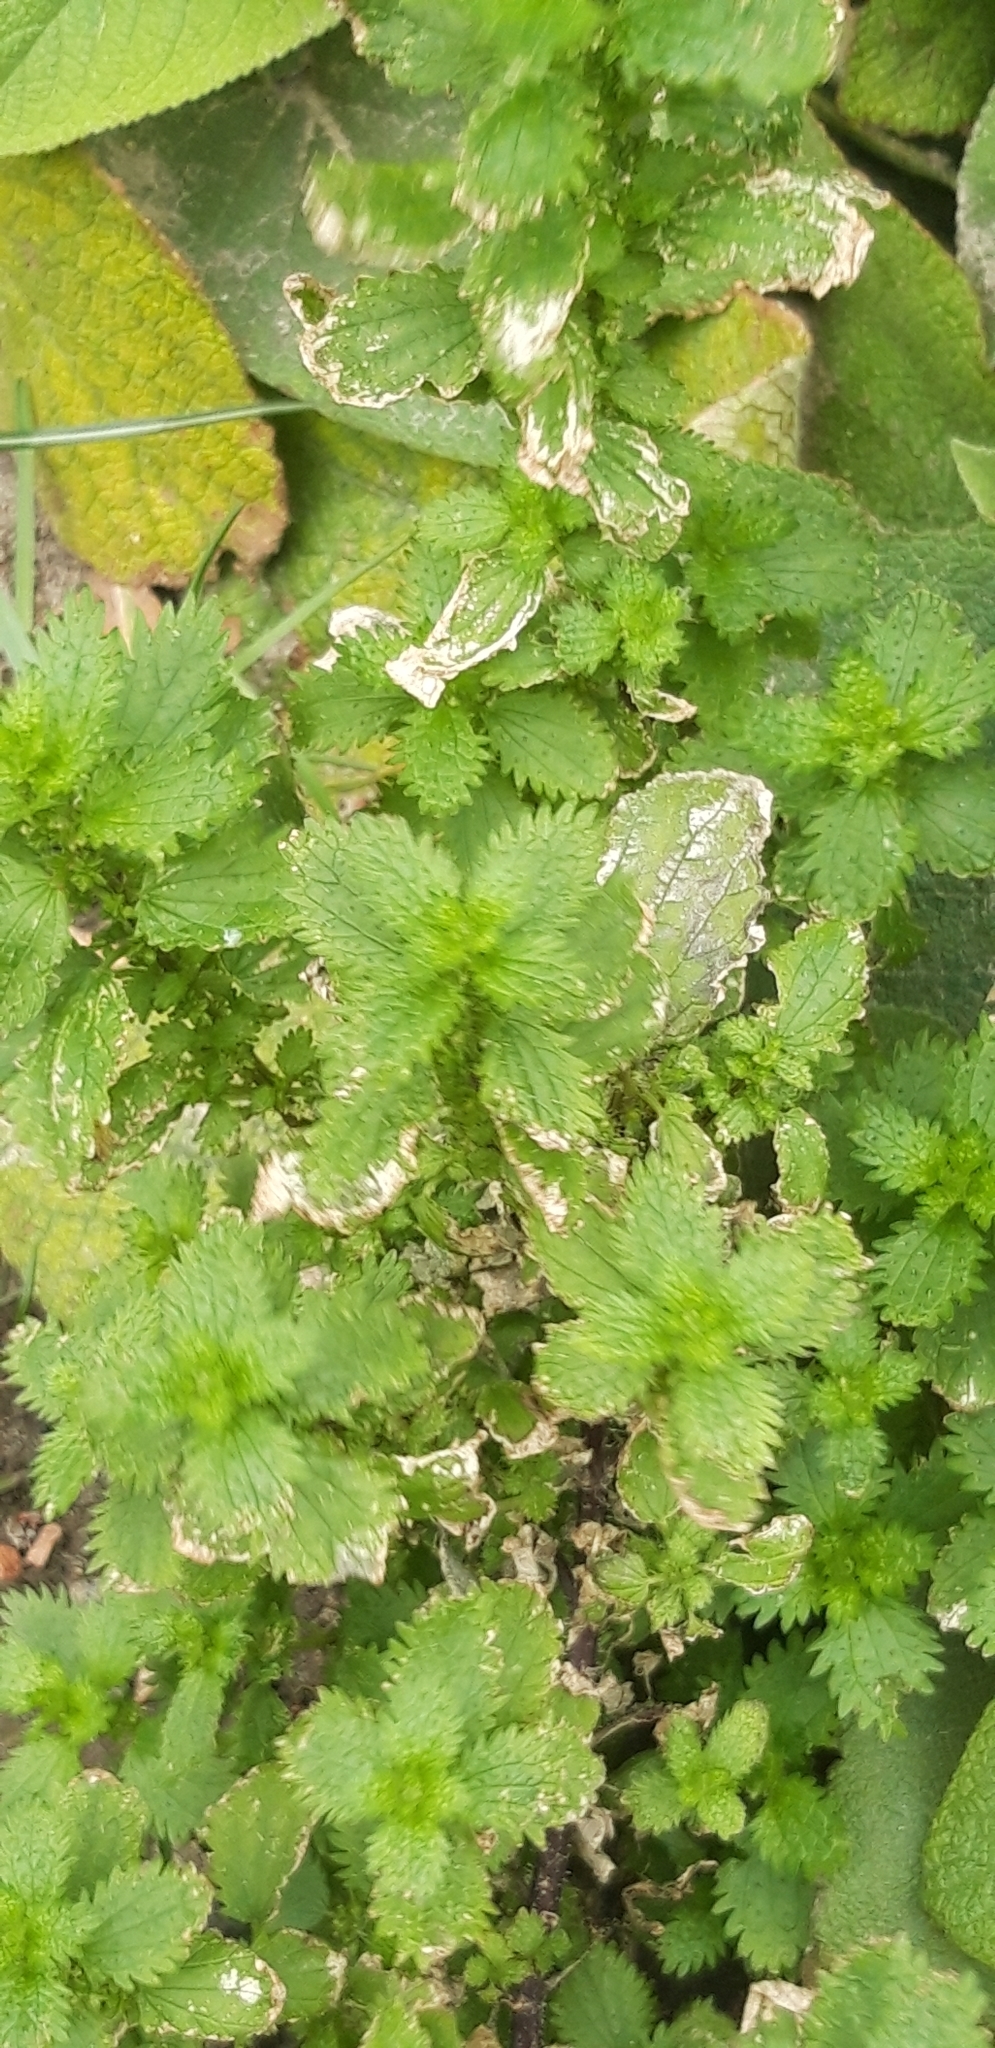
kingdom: Plantae
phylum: Tracheophyta
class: Magnoliopsida
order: Rosales
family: Urticaceae
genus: Urtica
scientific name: Urtica urens
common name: Dwarf nettle
